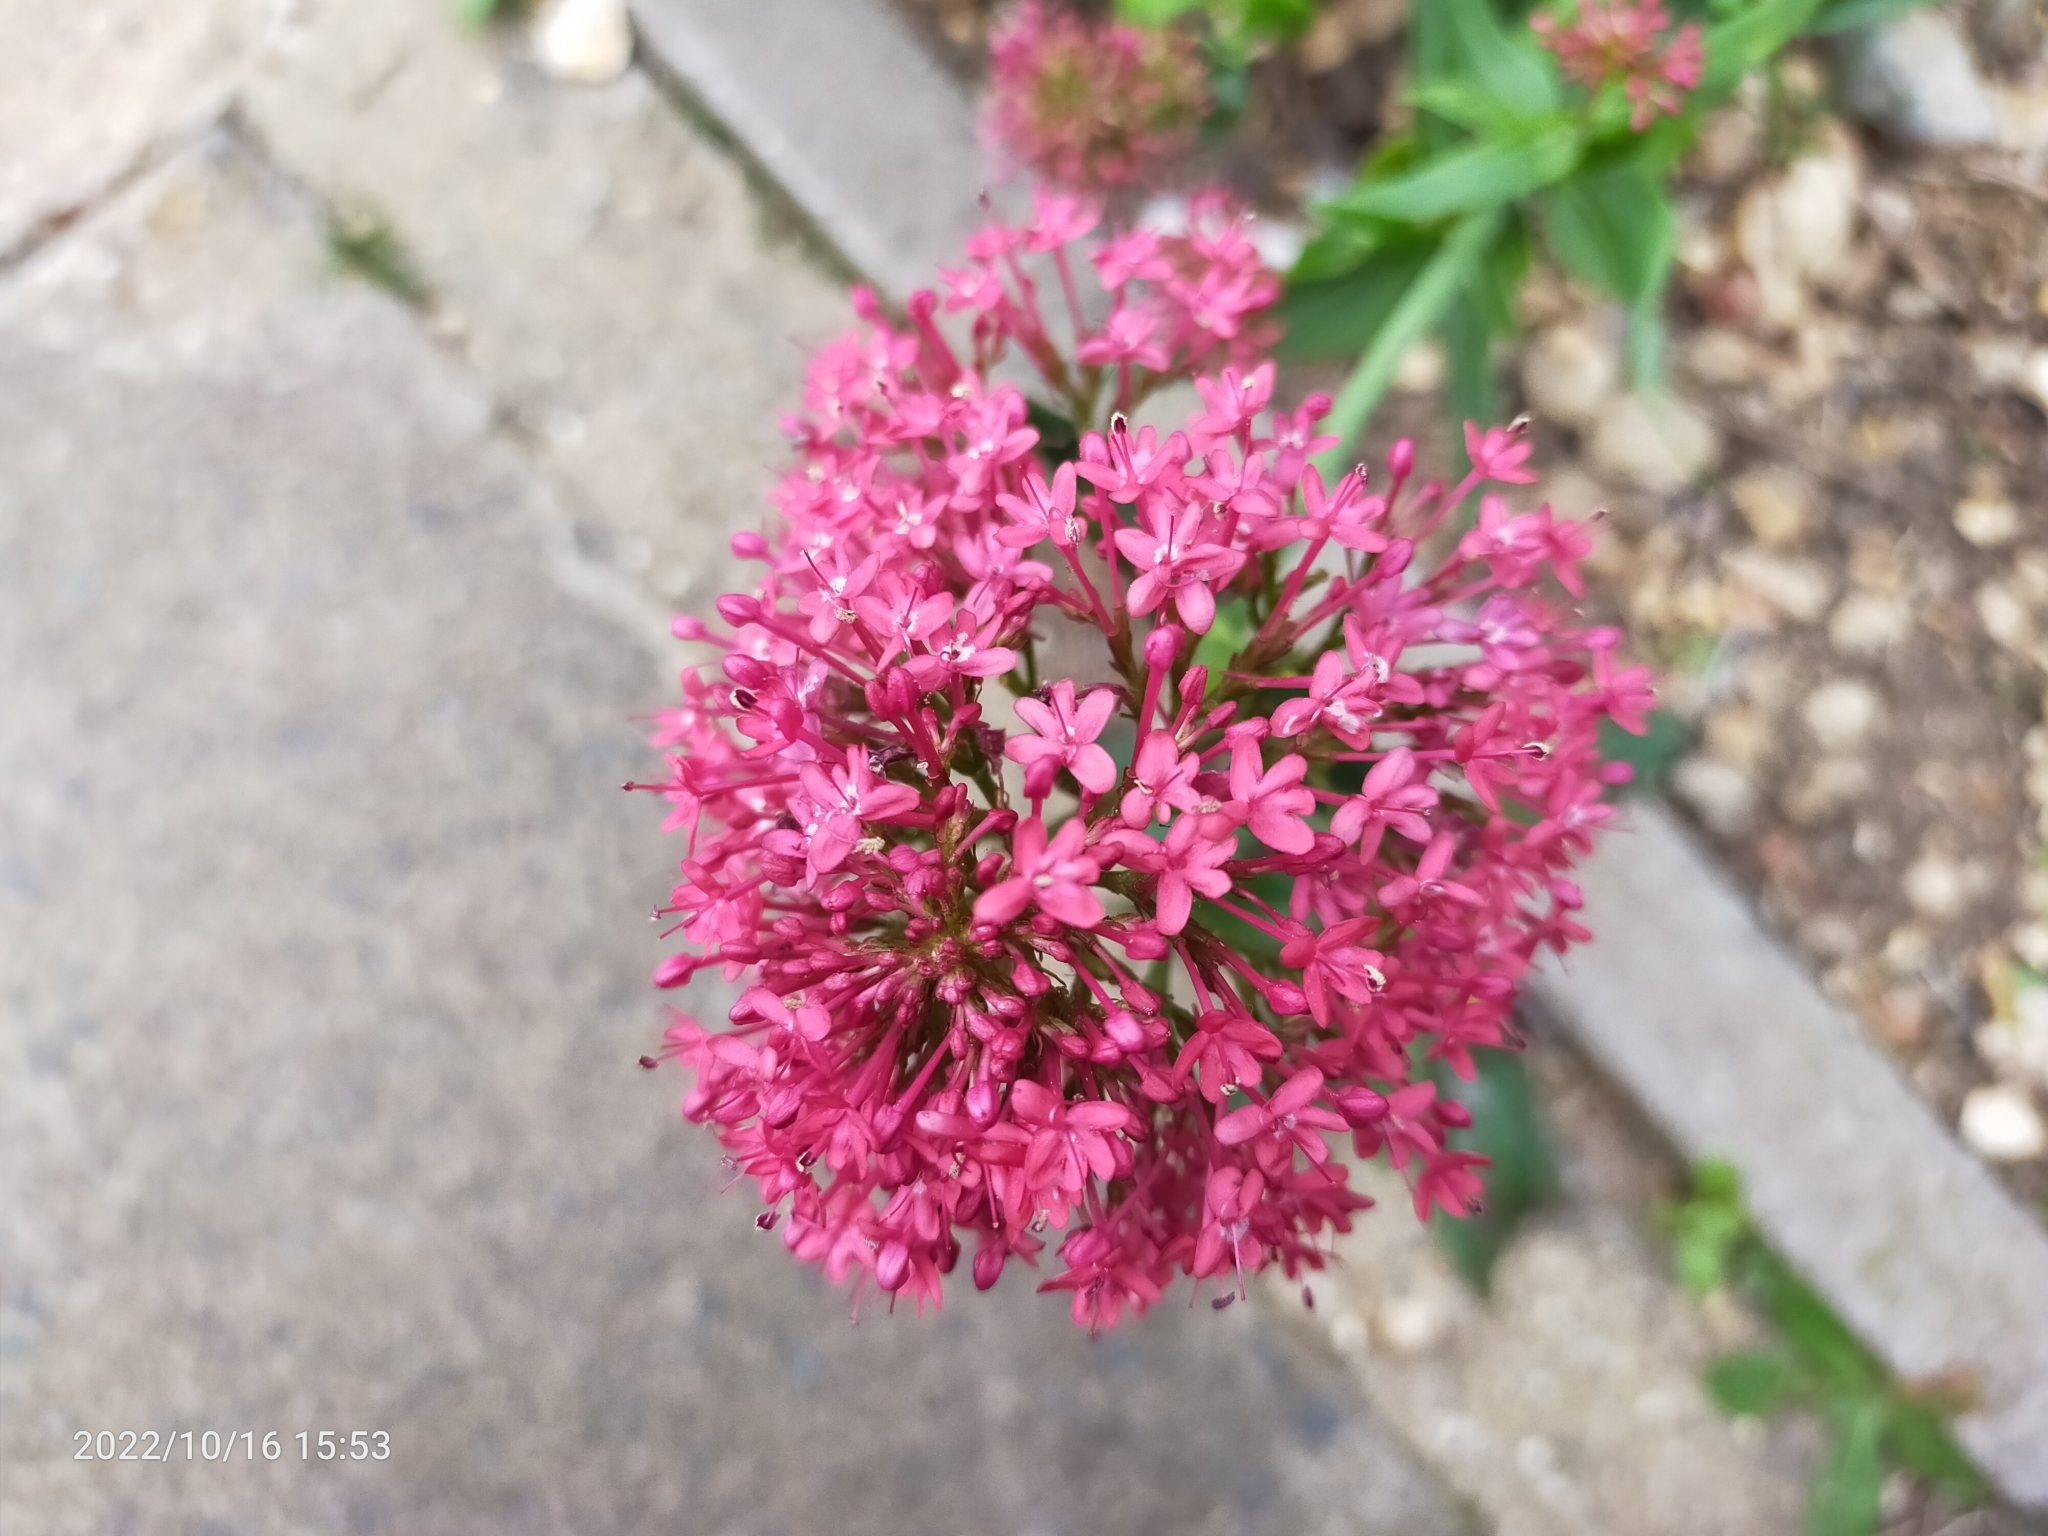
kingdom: Plantae
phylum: Tracheophyta
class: Magnoliopsida
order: Dipsacales
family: Caprifoliaceae
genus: Centranthus
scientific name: Centranthus ruber
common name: Red valerian
